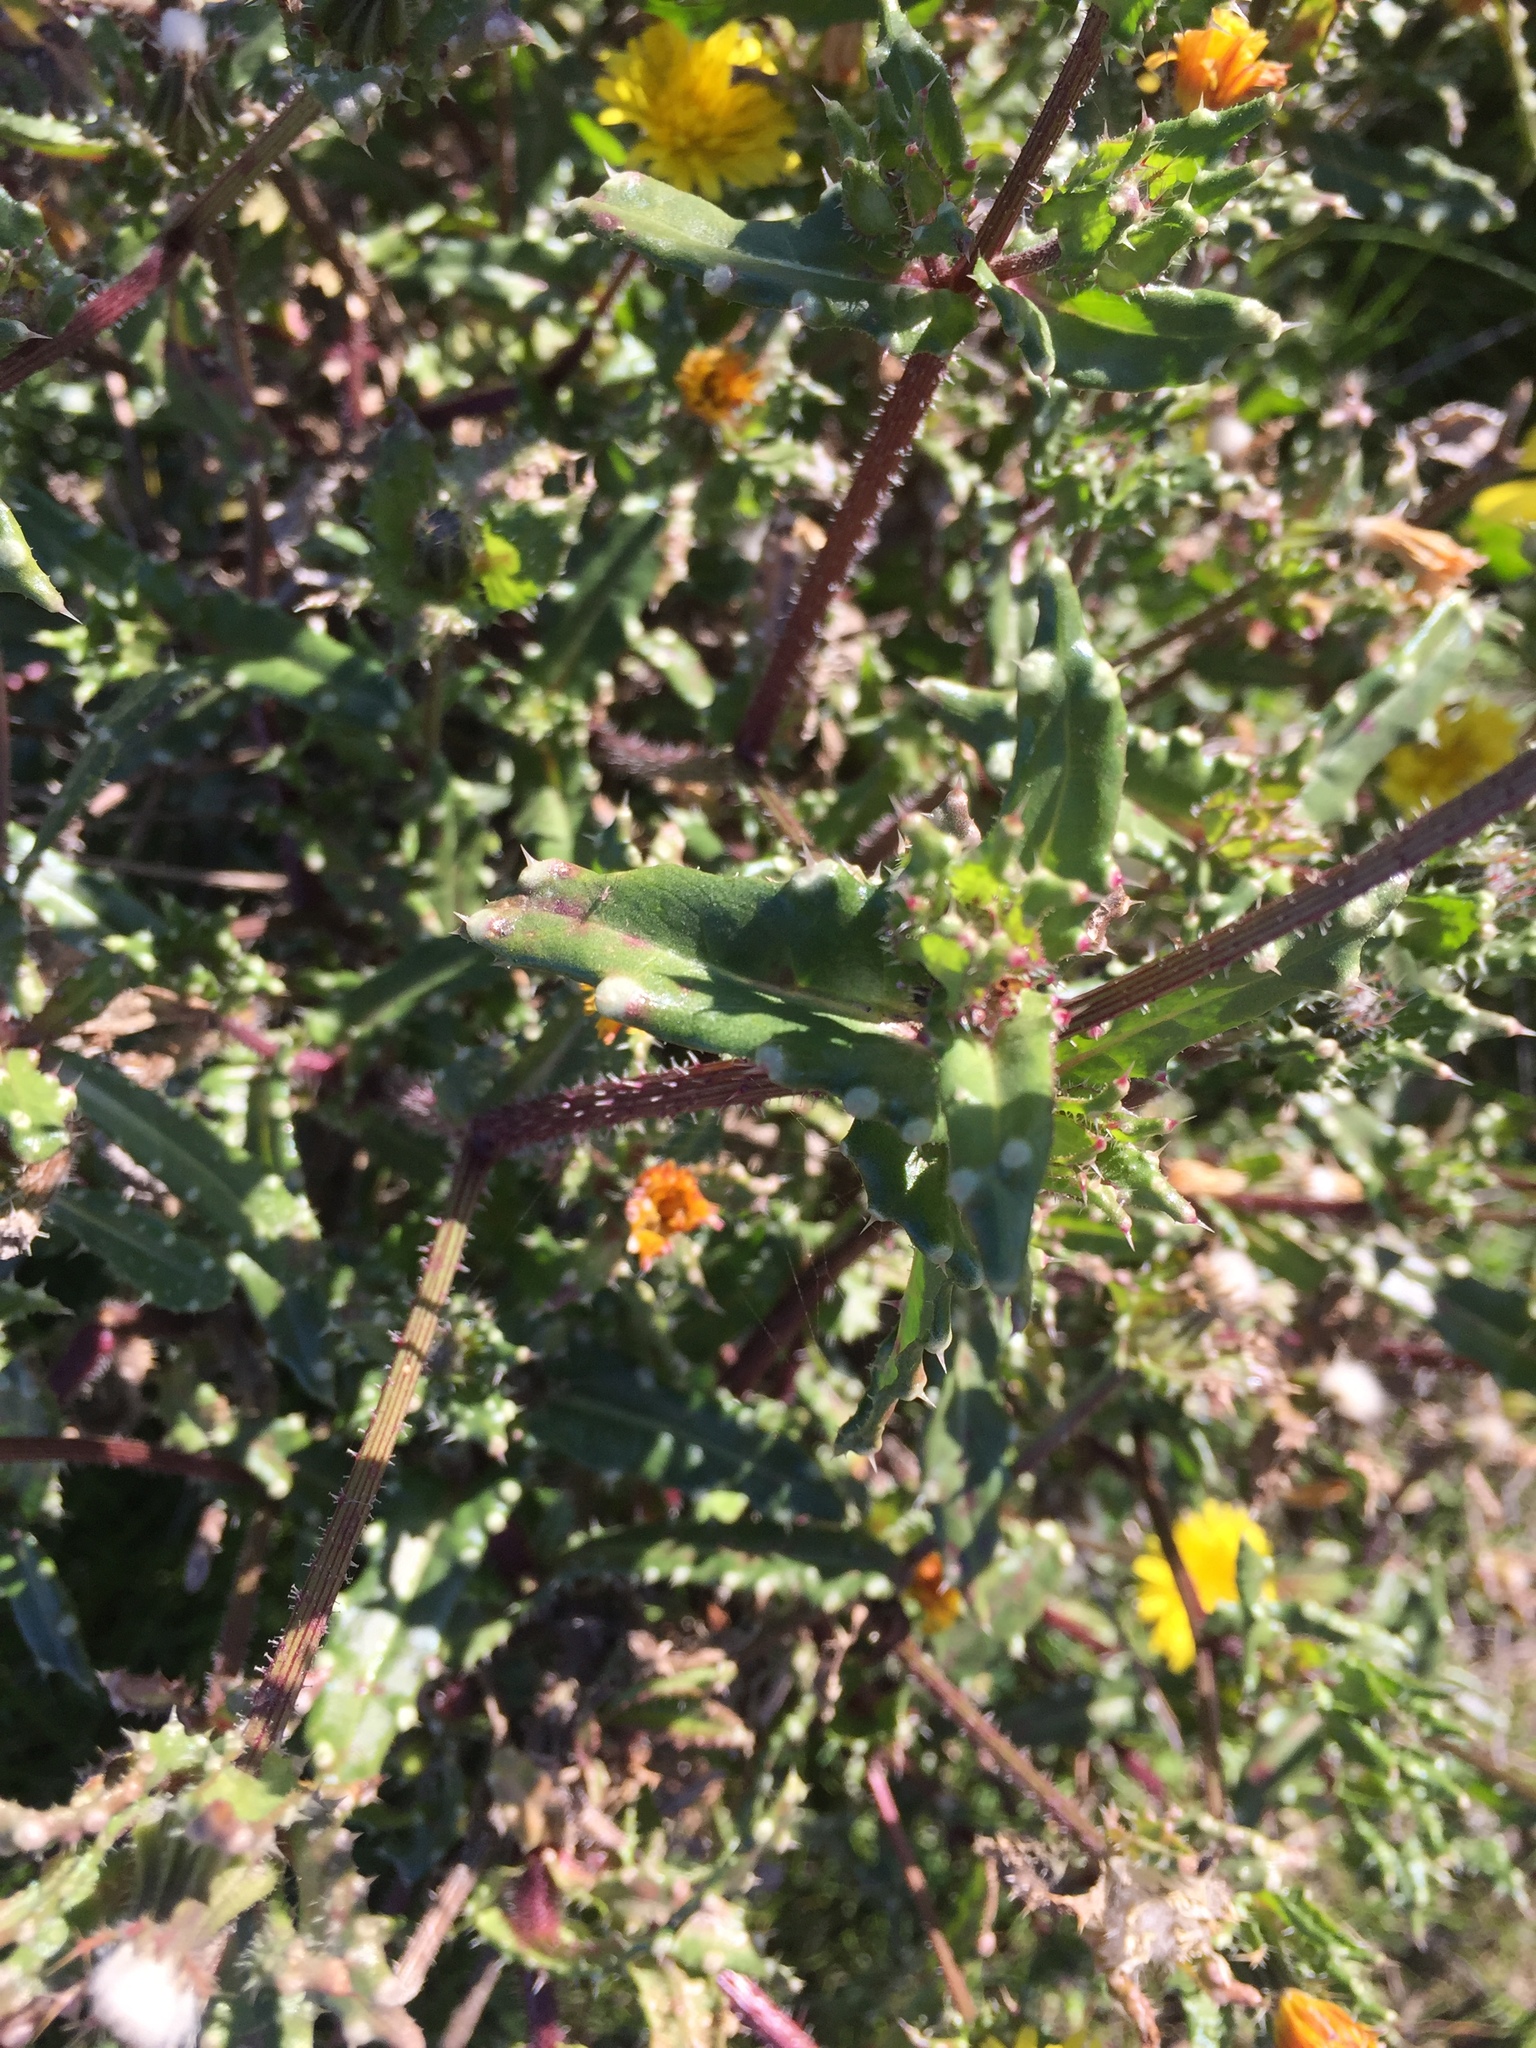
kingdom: Plantae
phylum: Tracheophyta
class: Magnoliopsida
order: Asterales
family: Asteraceae
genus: Helminthotheca
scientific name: Helminthotheca echioides
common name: Ox-tongue
